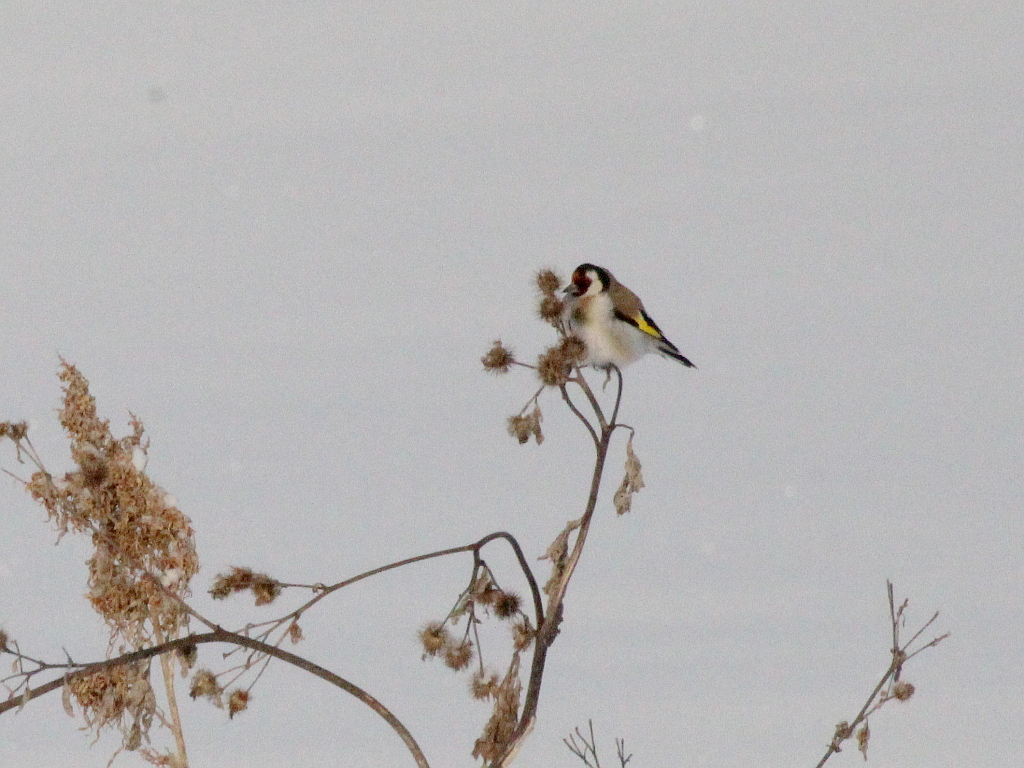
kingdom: Animalia
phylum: Chordata
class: Aves
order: Passeriformes
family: Fringillidae
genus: Carduelis
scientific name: Carduelis carduelis
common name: European goldfinch
